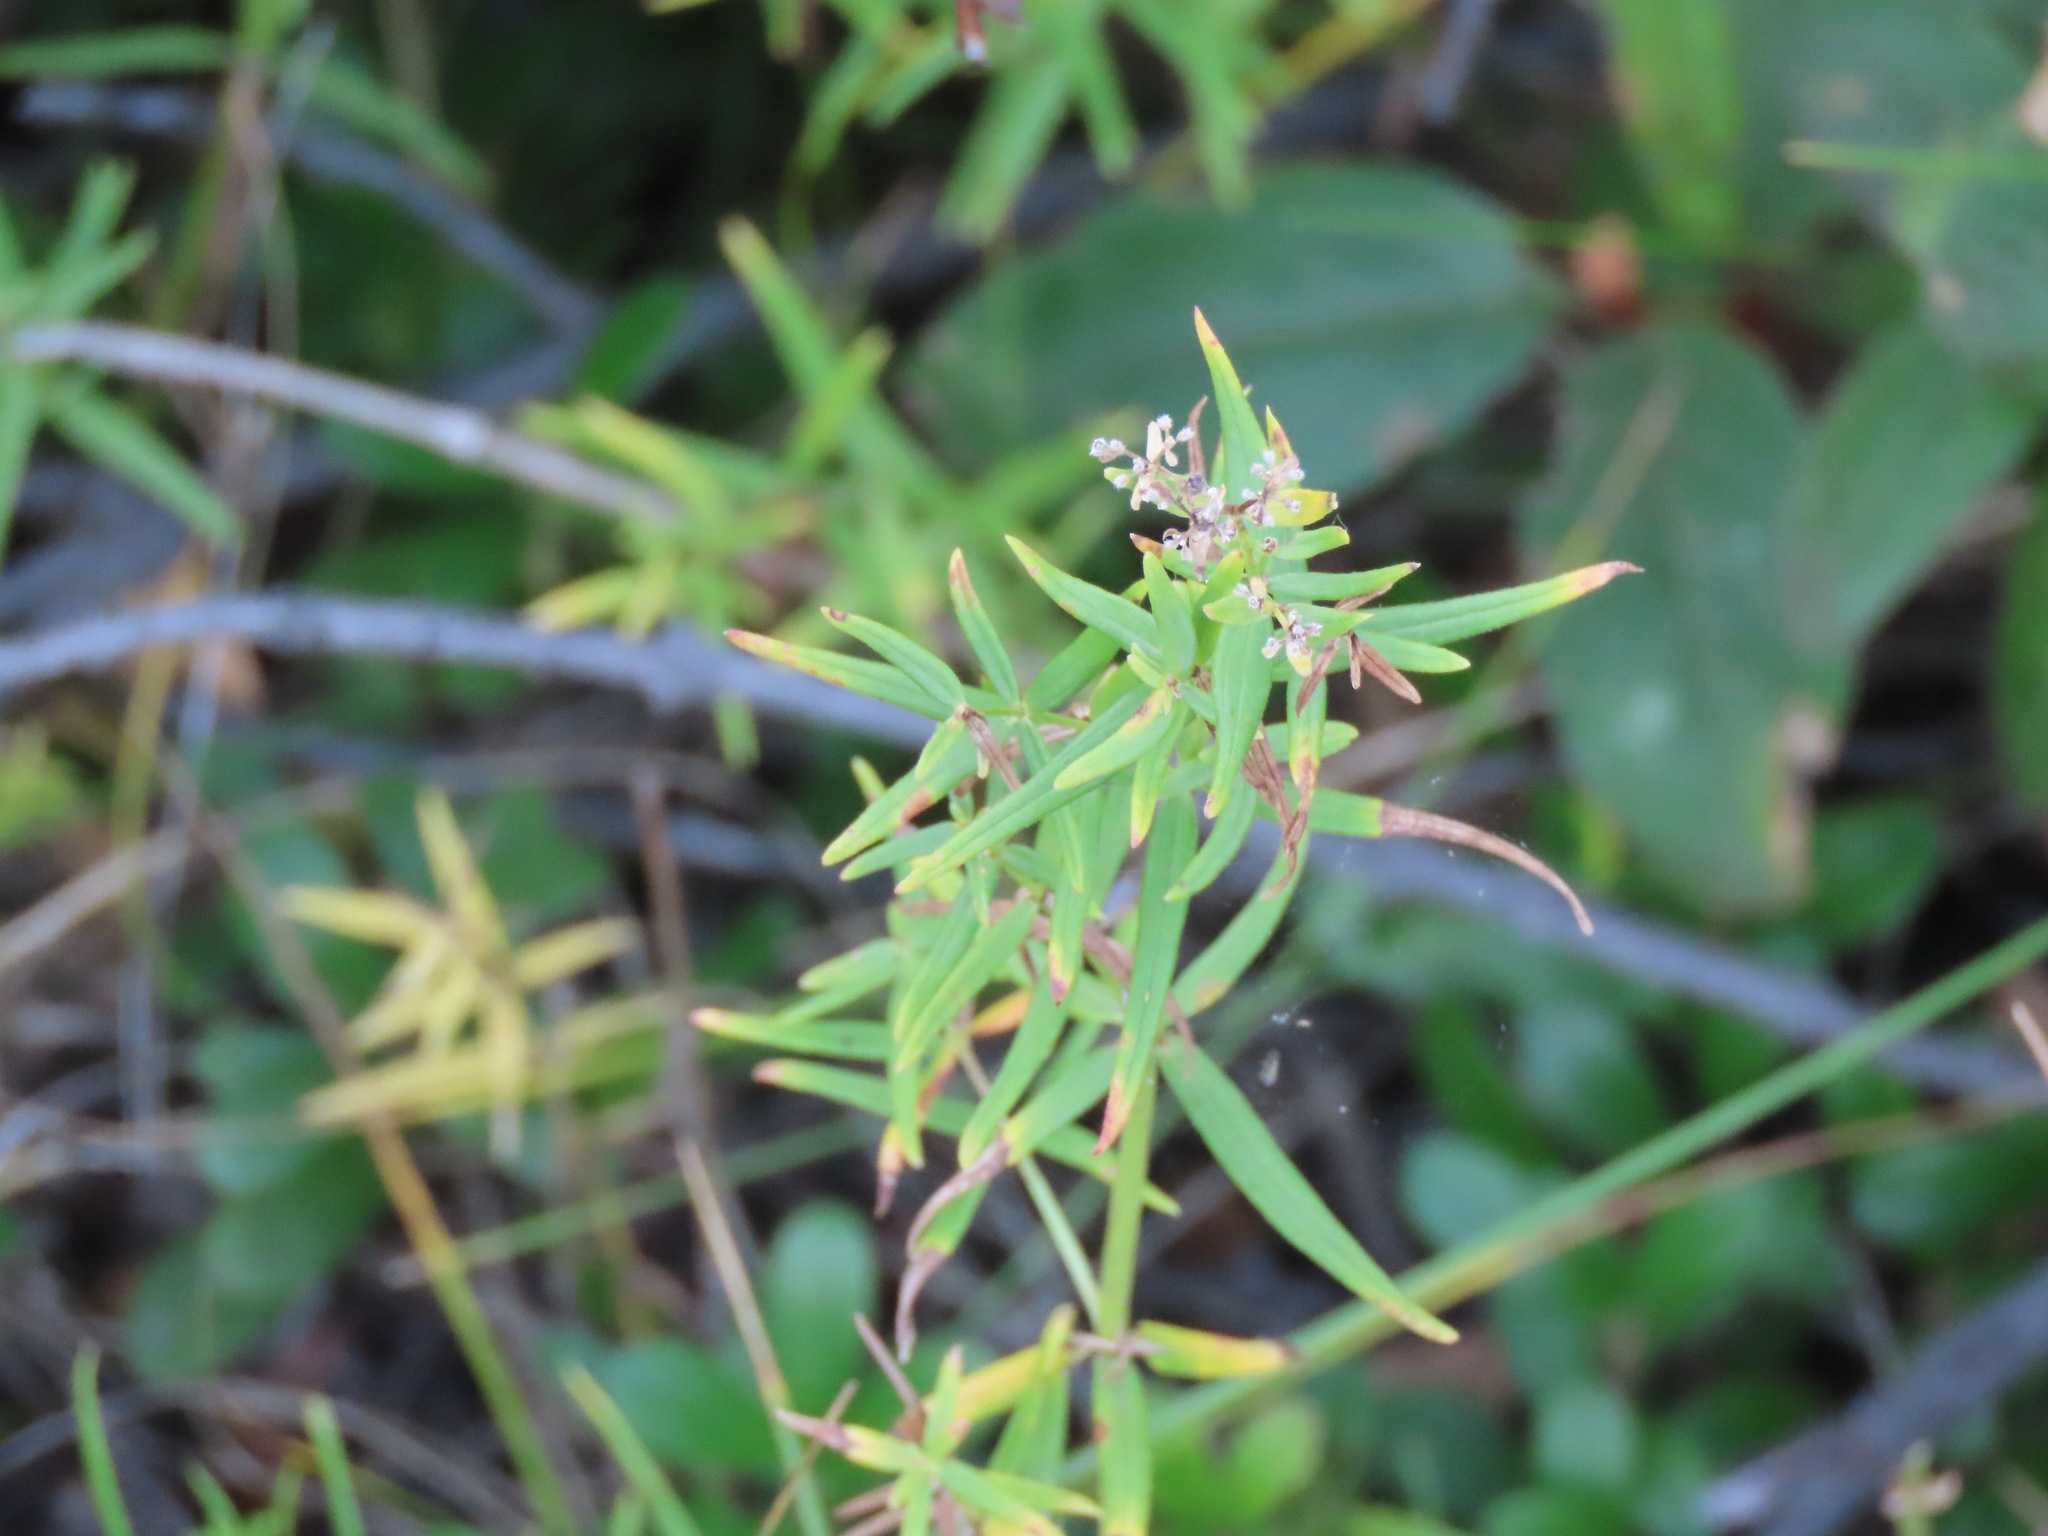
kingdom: Plantae
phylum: Tracheophyta
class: Magnoliopsida
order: Gentianales
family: Rubiaceae
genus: Galium
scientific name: Galium boreale
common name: Northern bedstraw
